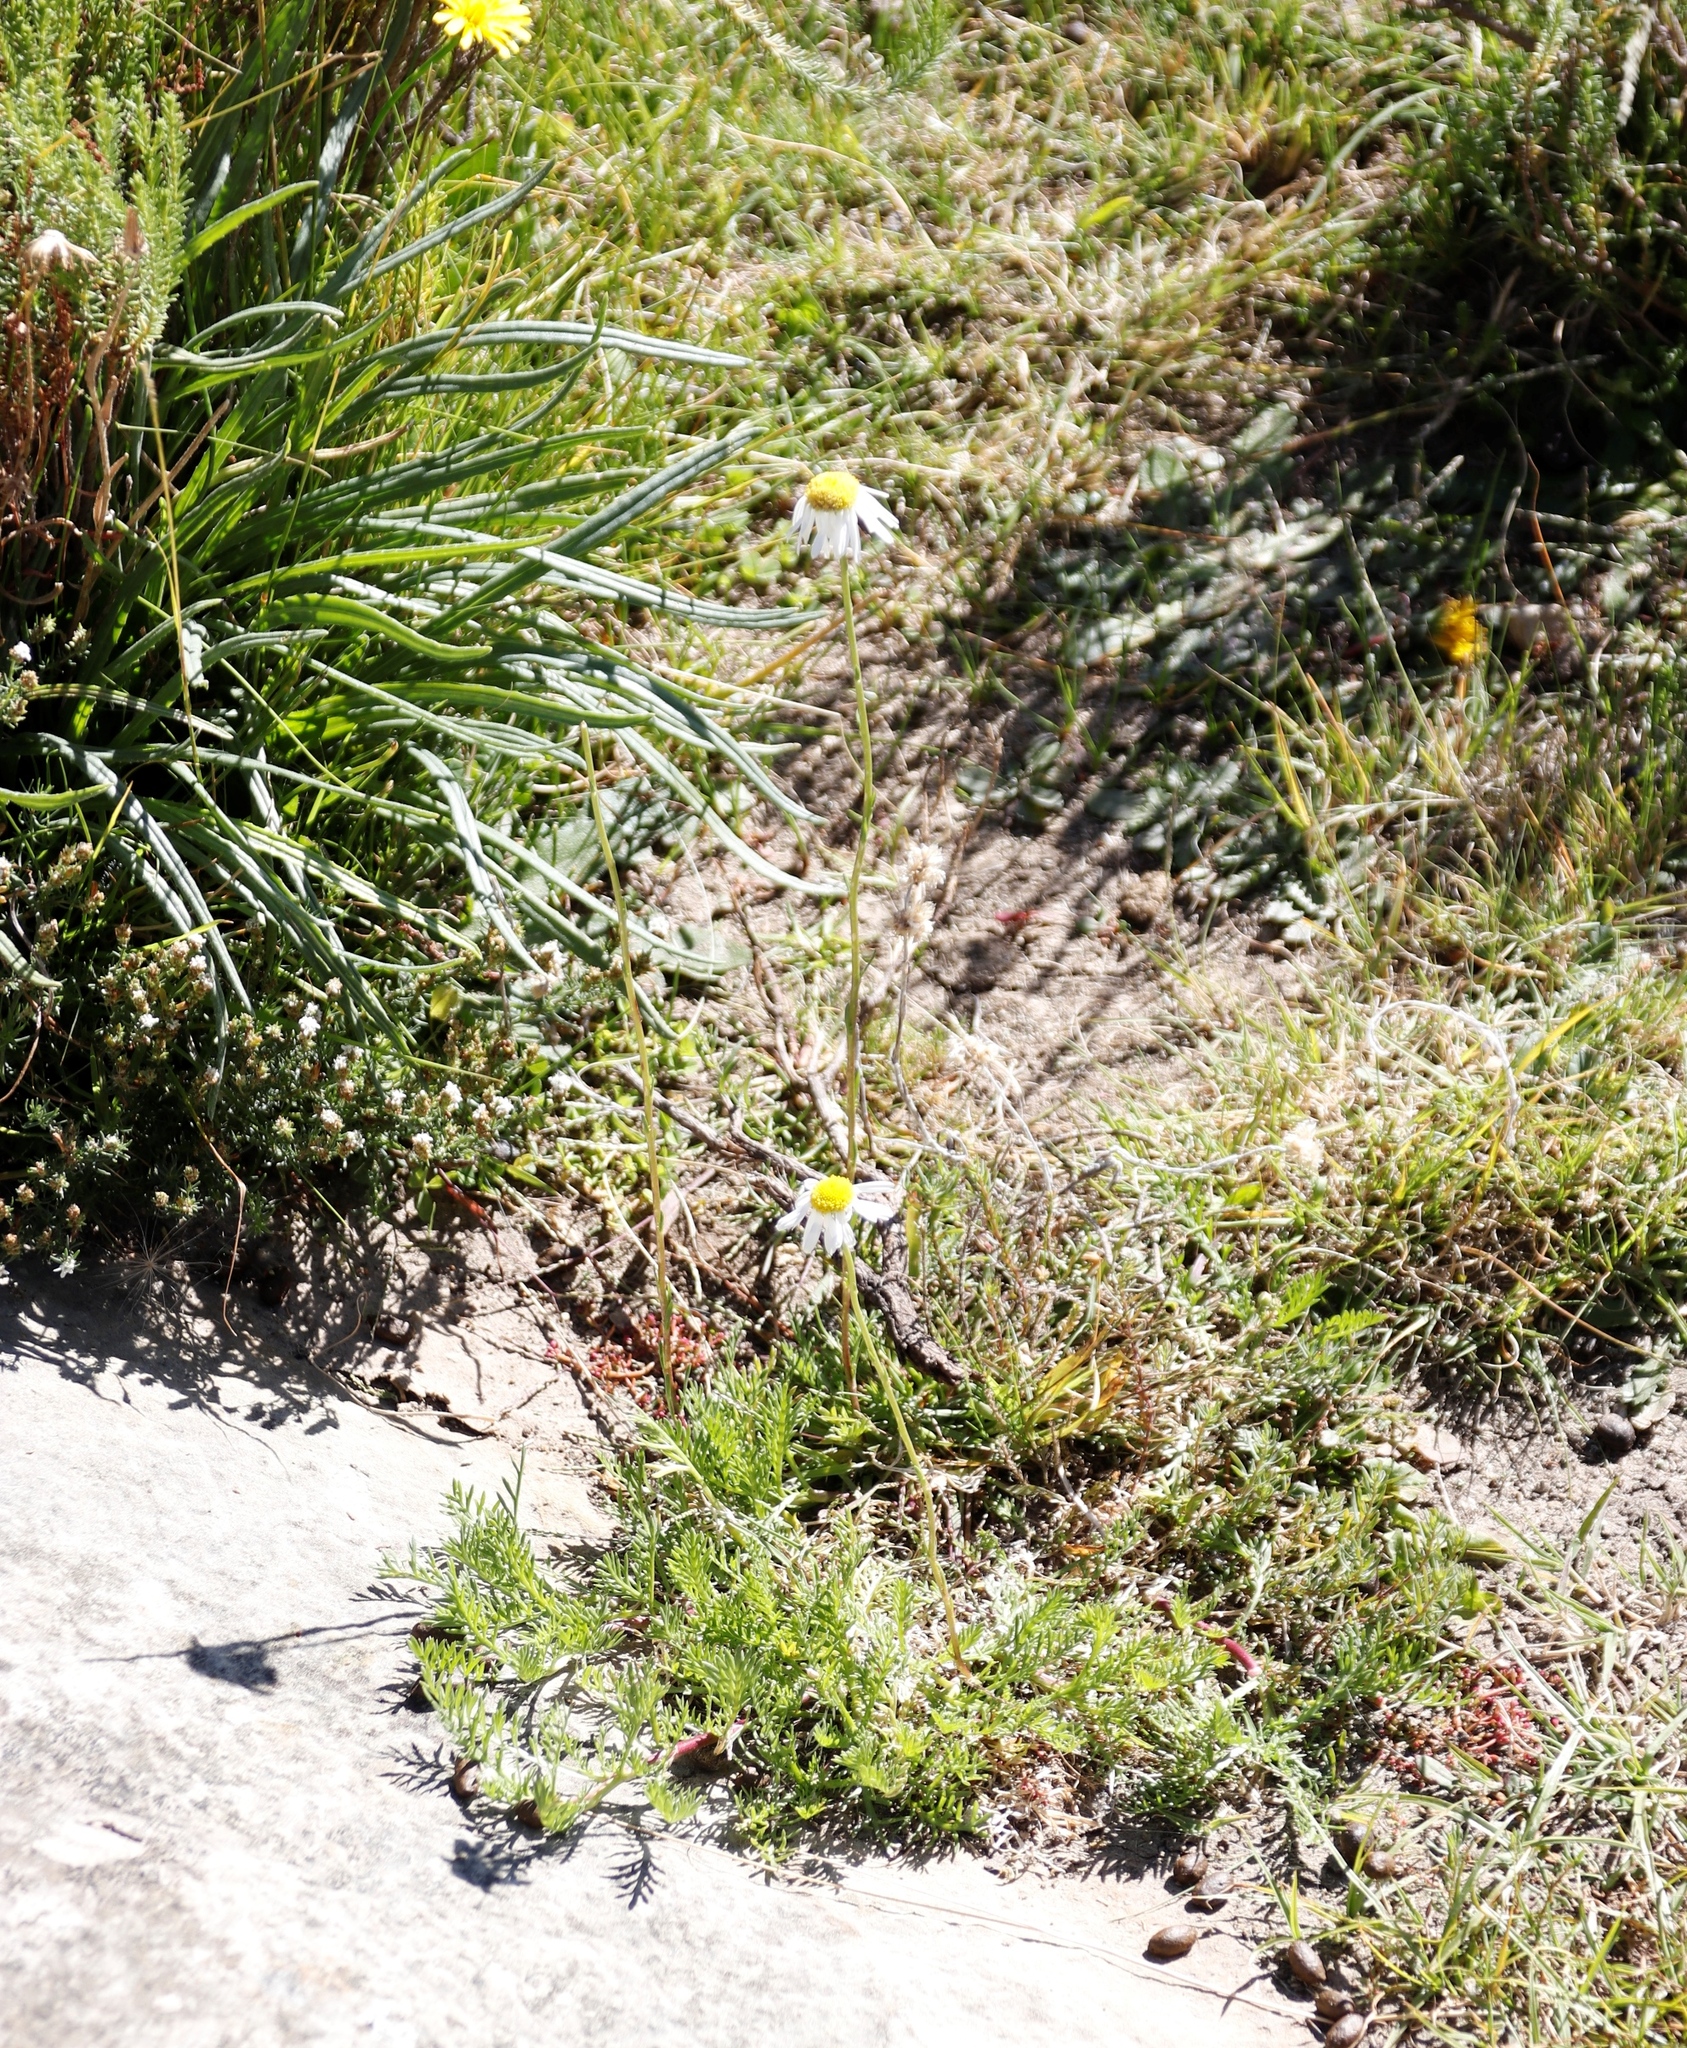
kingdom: Plantae
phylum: Tracheophyta
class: Magnoliopsida
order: Asterales
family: Asteraceae
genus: Lasiospermum
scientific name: Lasiospermum bipinnatum
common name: Cocoonhead
